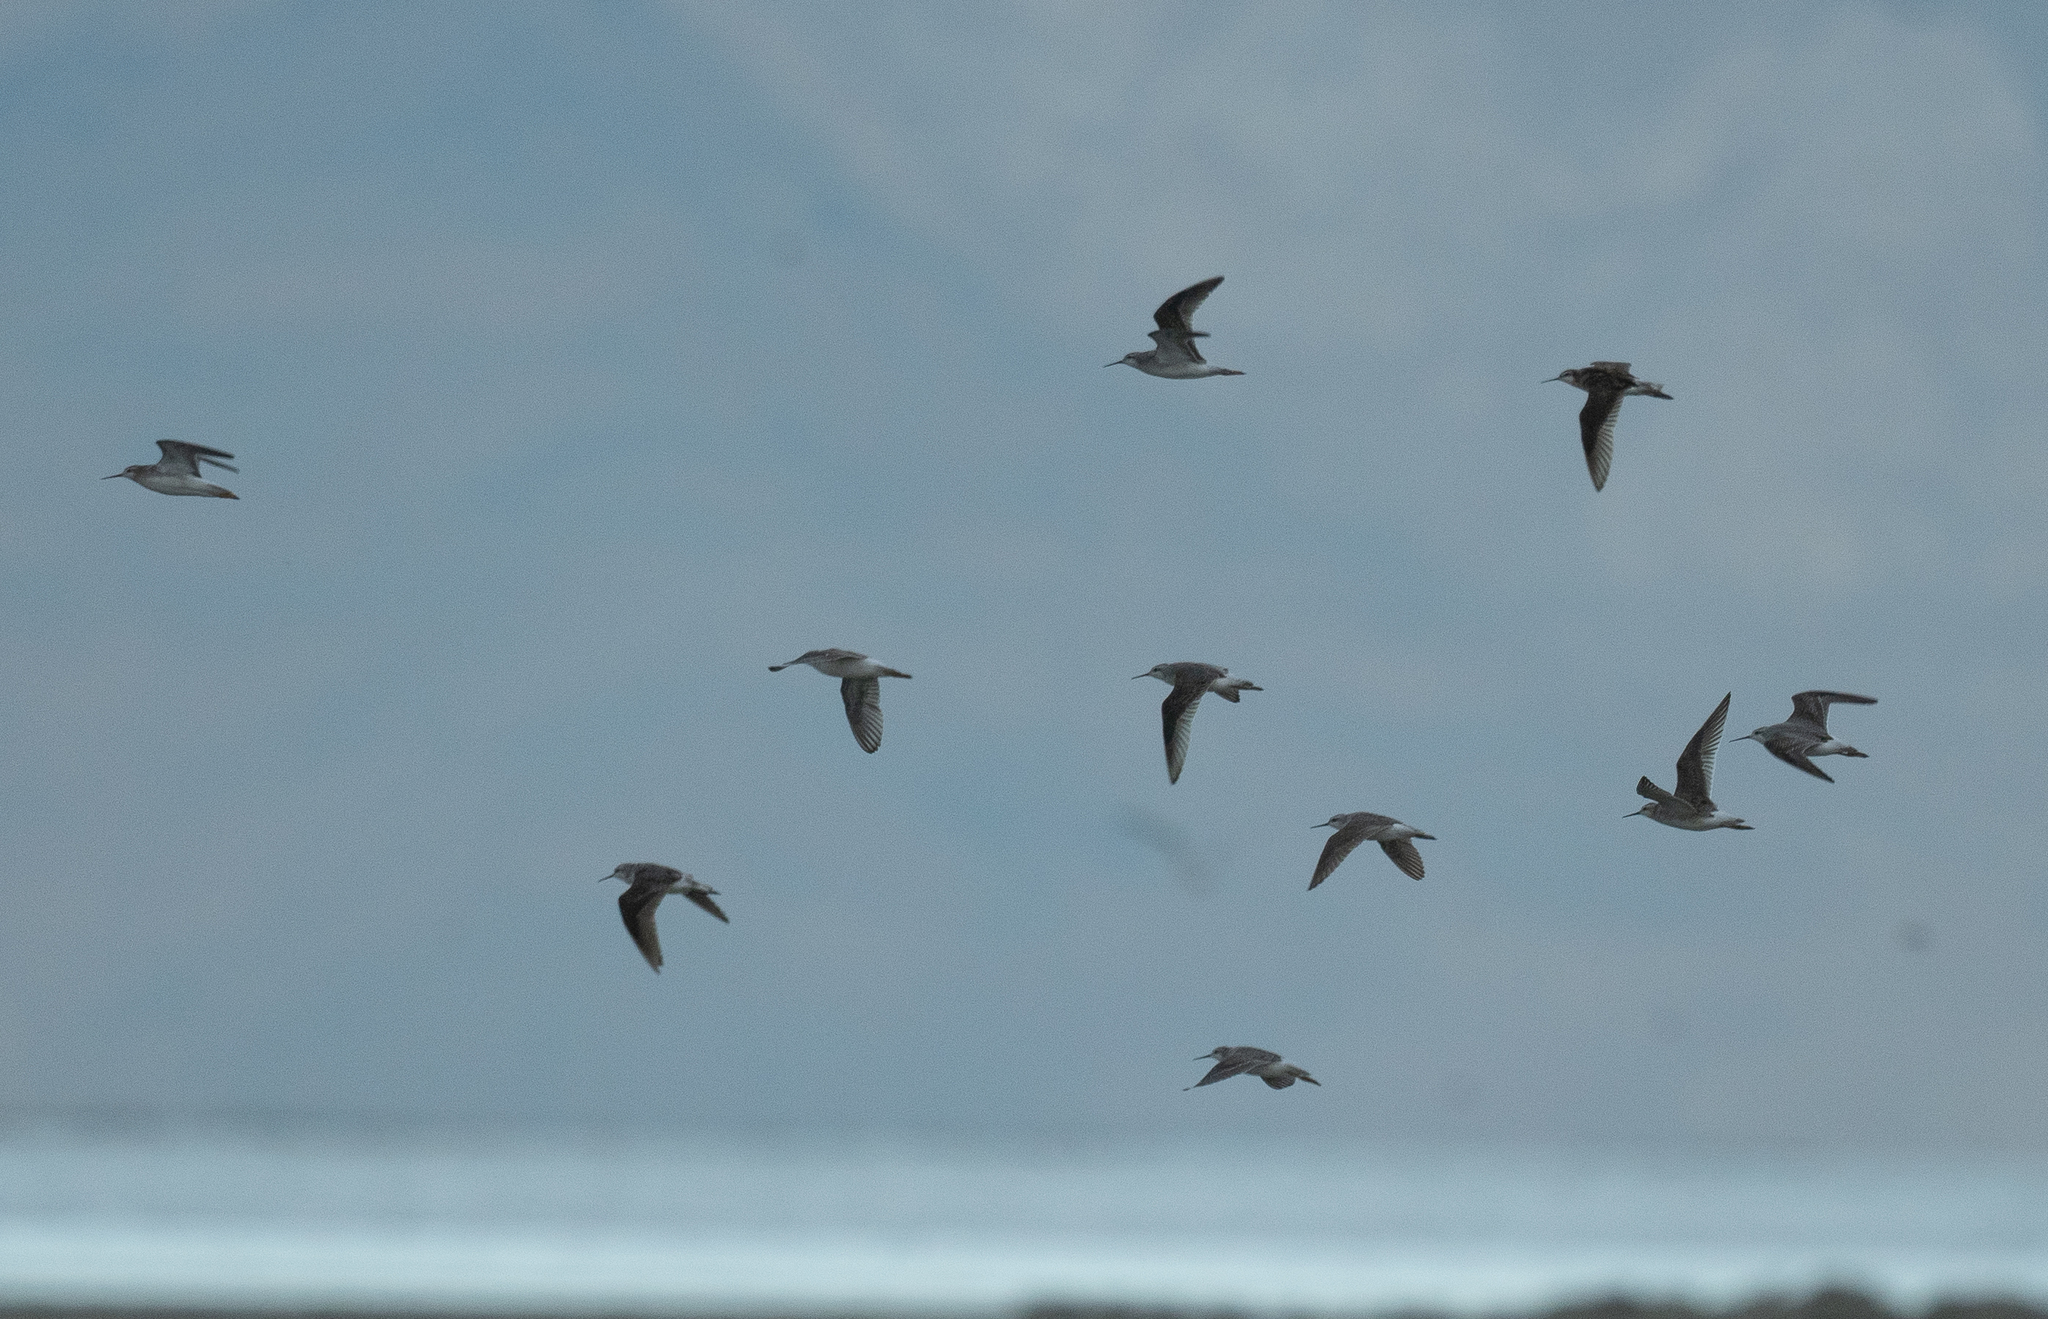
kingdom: Animalia
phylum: Chordata
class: Aves
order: Charadriiformes
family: Scolopacidae
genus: Phalaropus
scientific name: Phalaropus tricolor
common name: Wilson's phalarope
